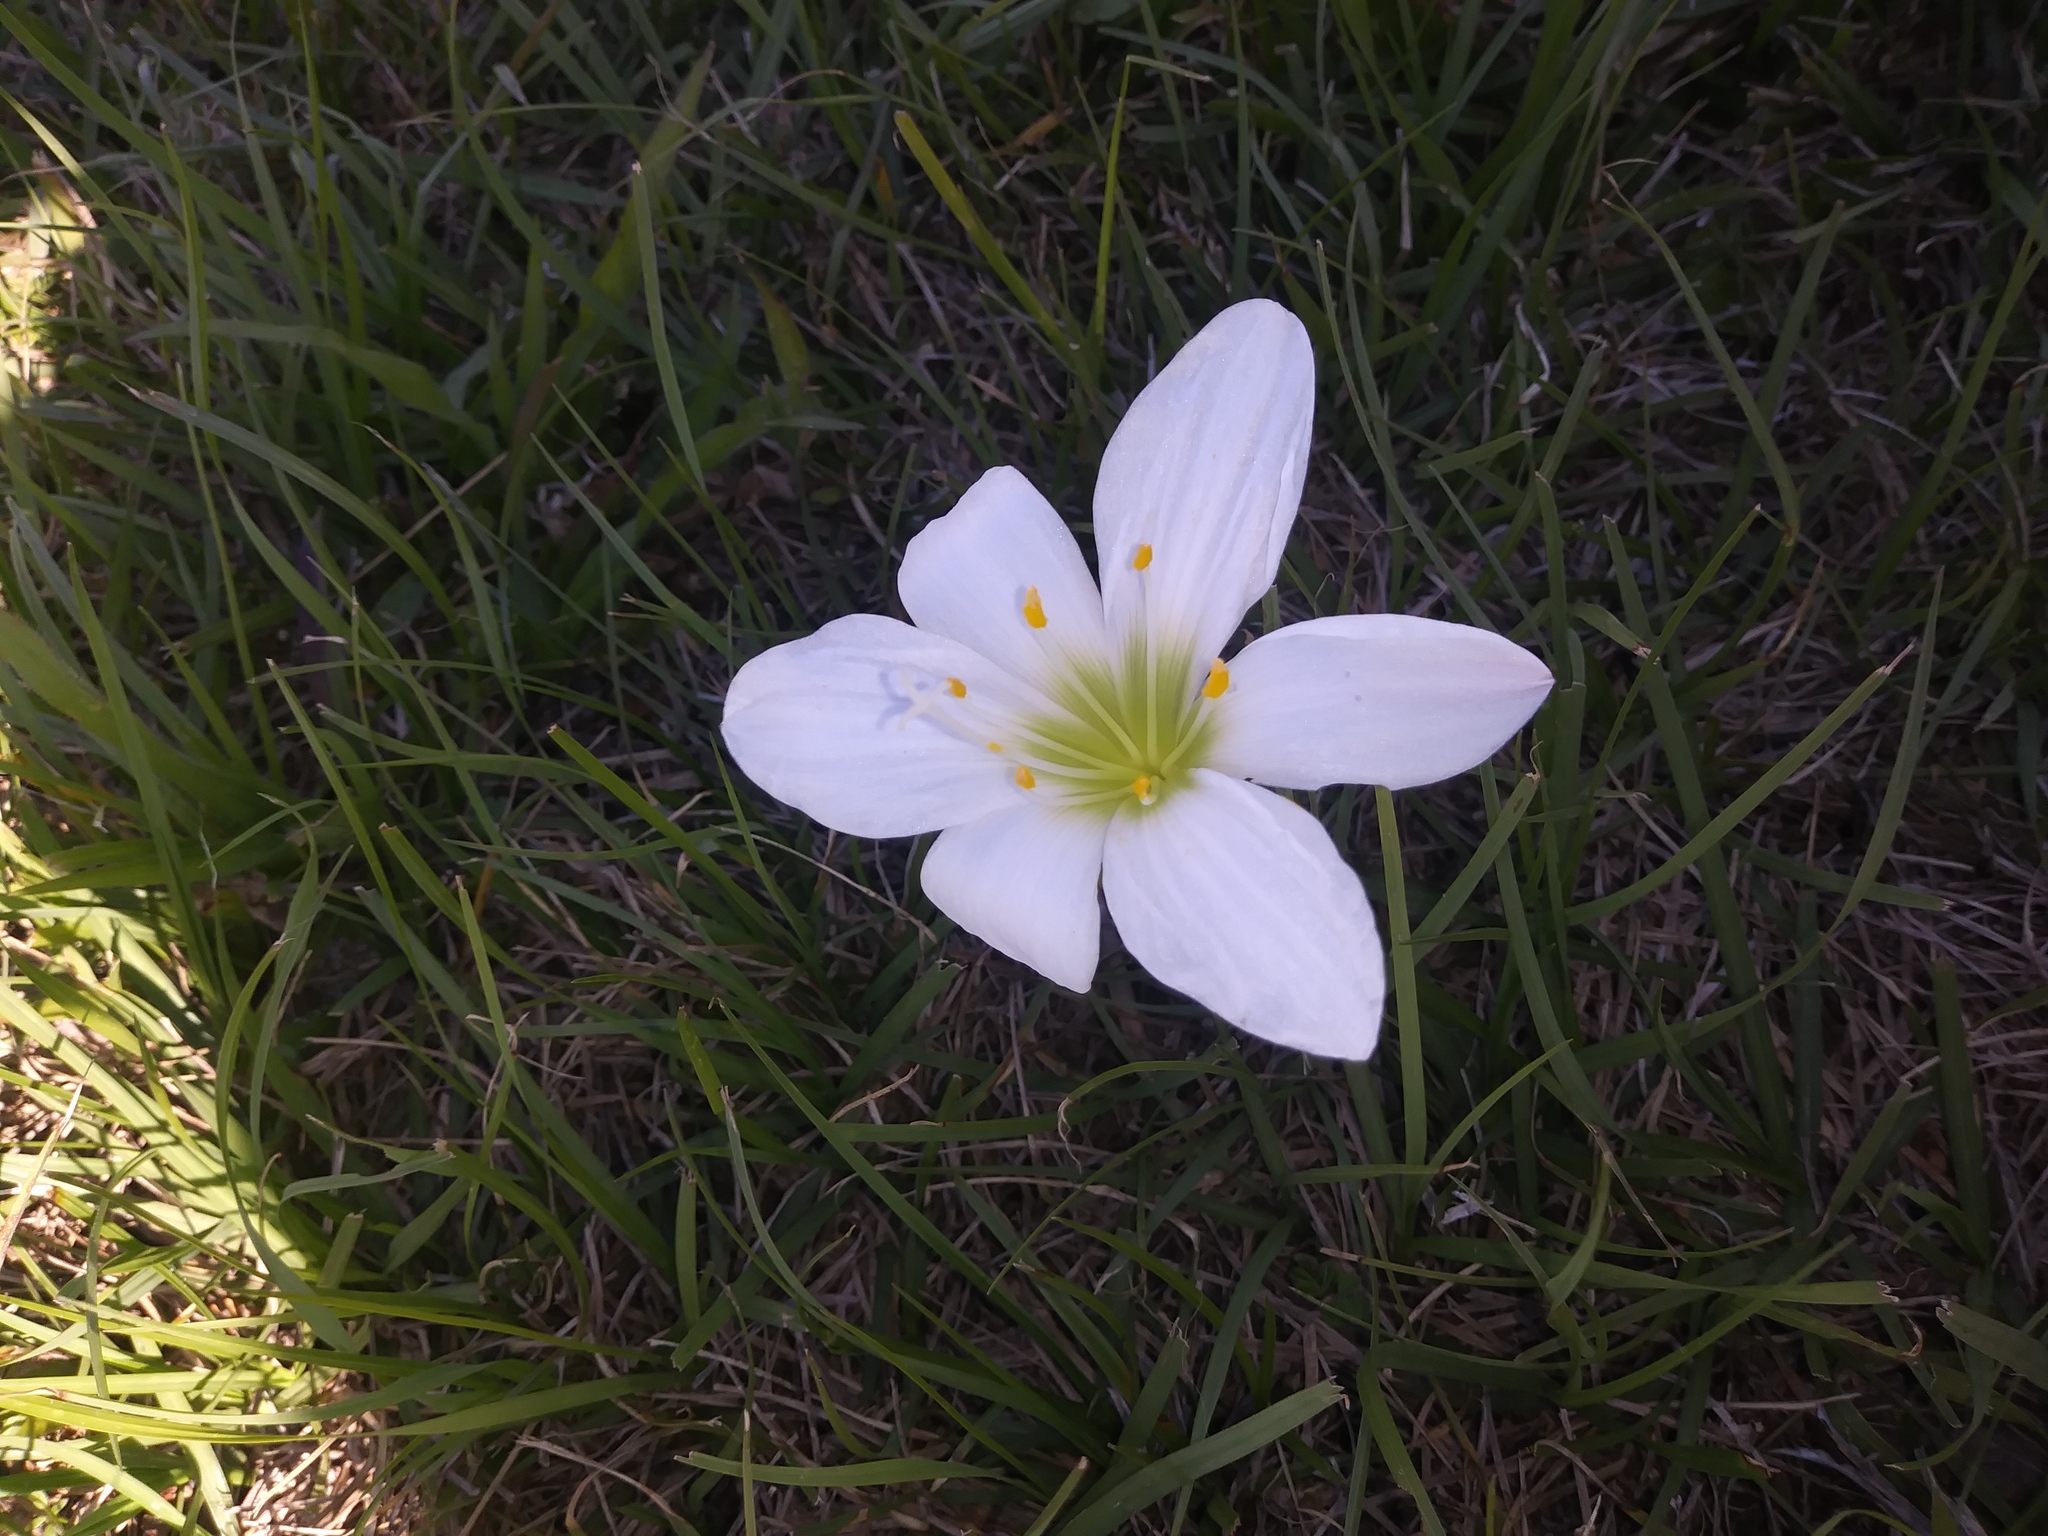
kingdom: Plantae
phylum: Tracheophyta
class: Liliopsida
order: Asparagales
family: Amaryllidaceae
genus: Zephyranthes
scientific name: Zephyranthes atamasco
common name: Atamasco lily
